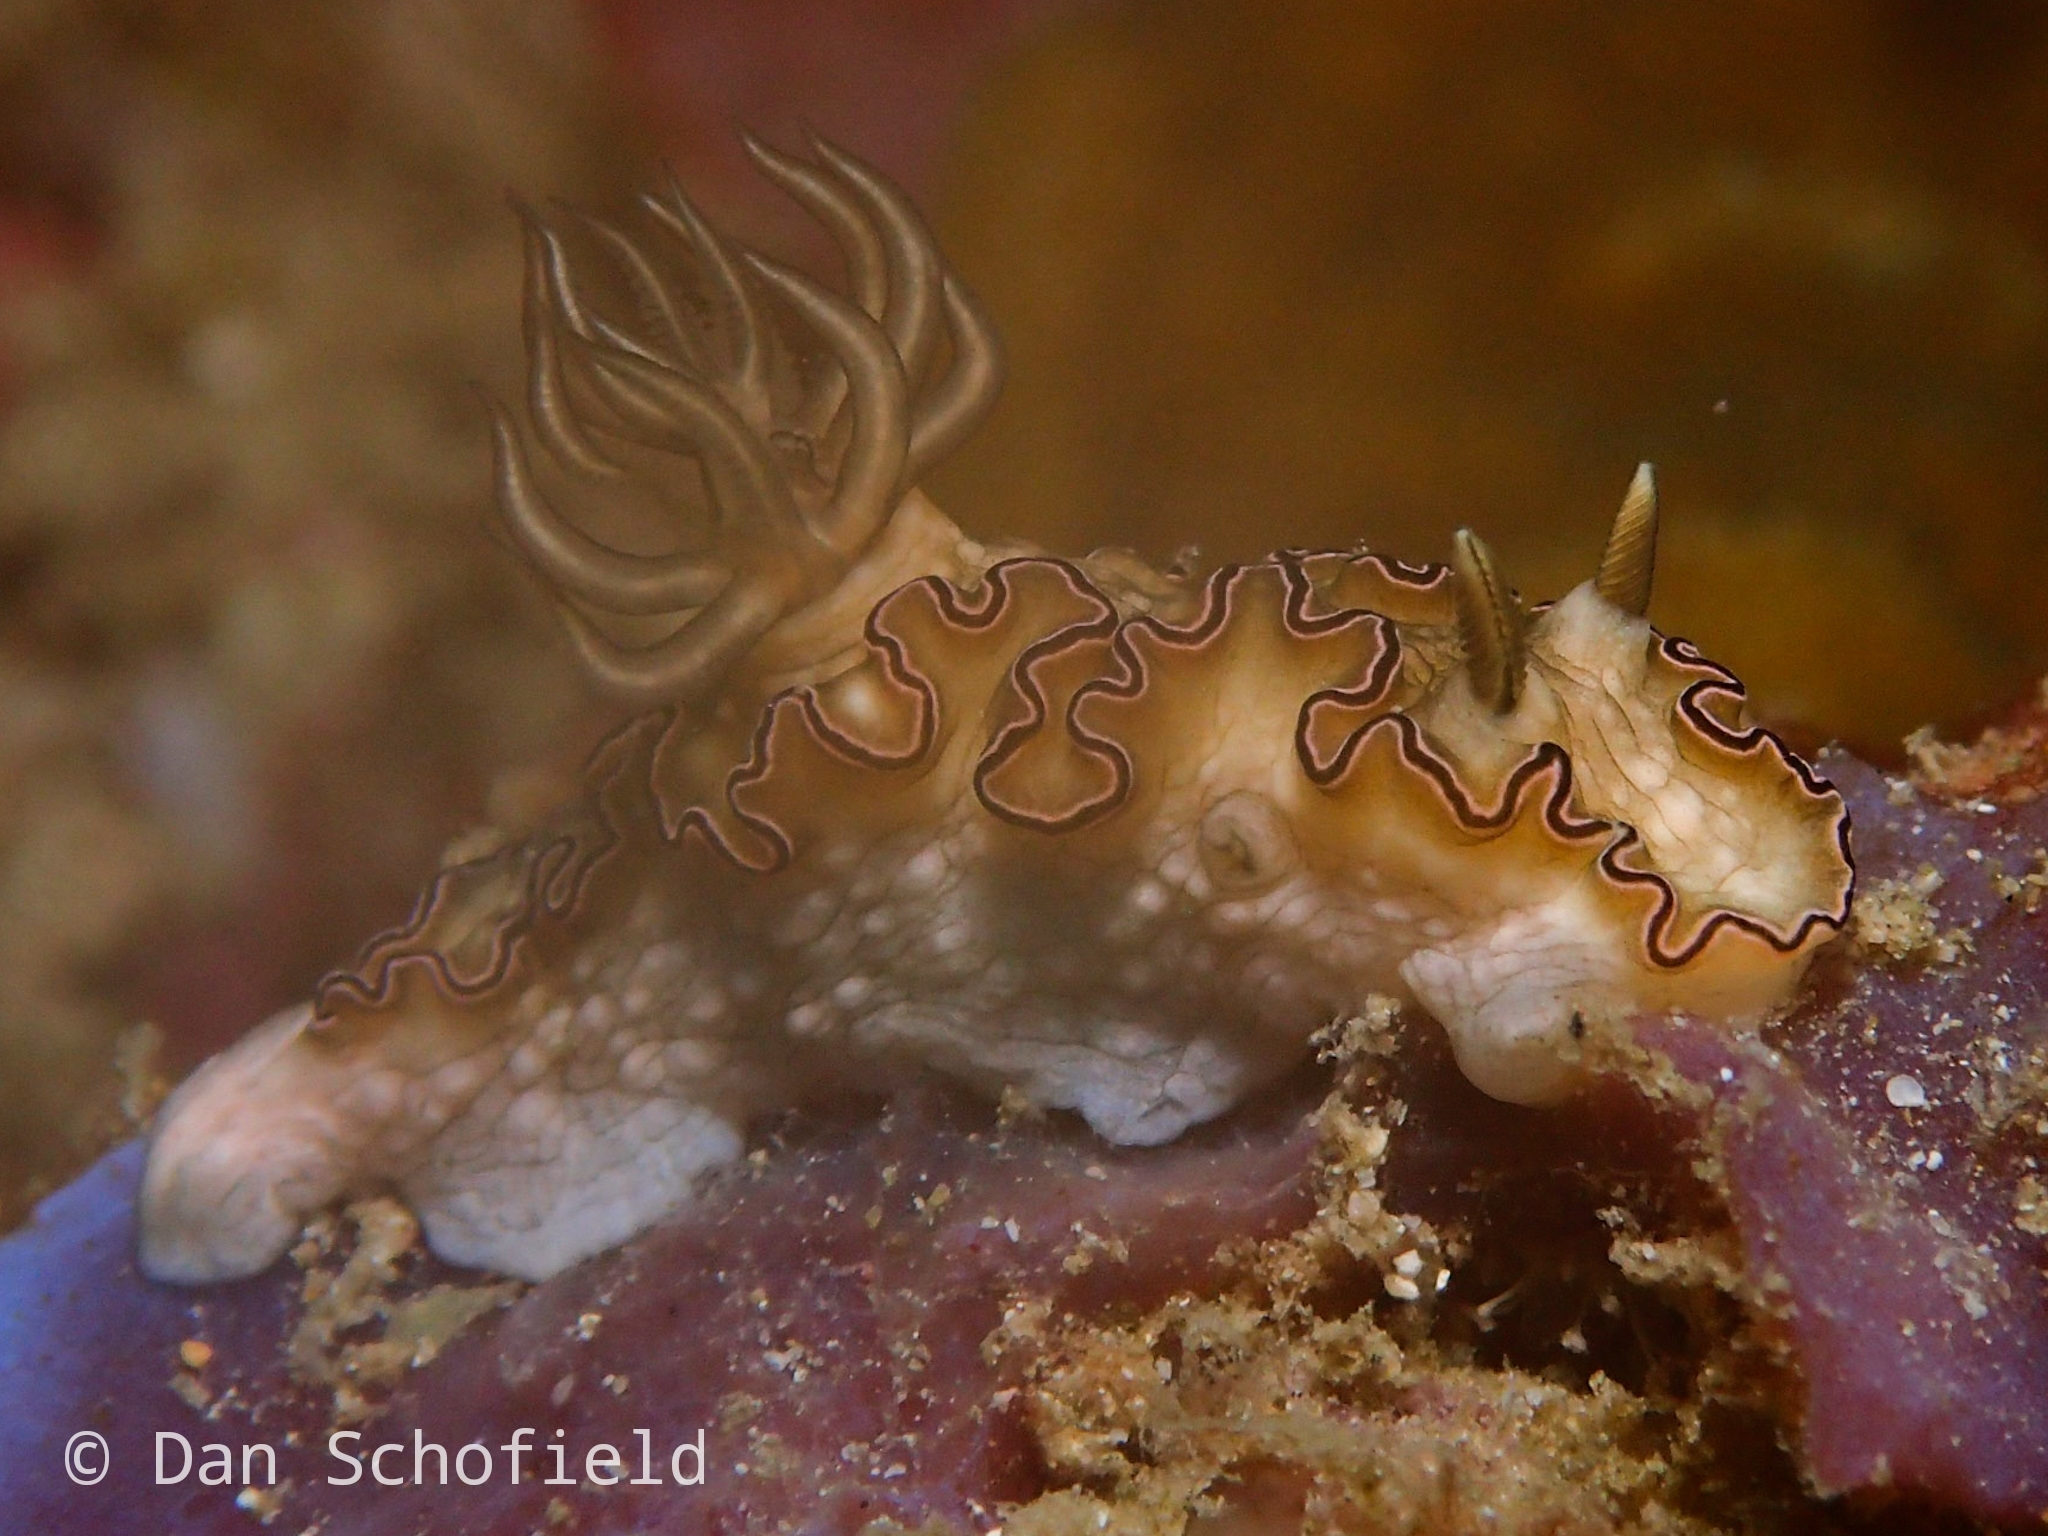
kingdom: Animalia
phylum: Mollusca
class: Gastropoda
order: Nudibranchia
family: Chromodorididae
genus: Doriprismatica
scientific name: Doriprismatica balut
